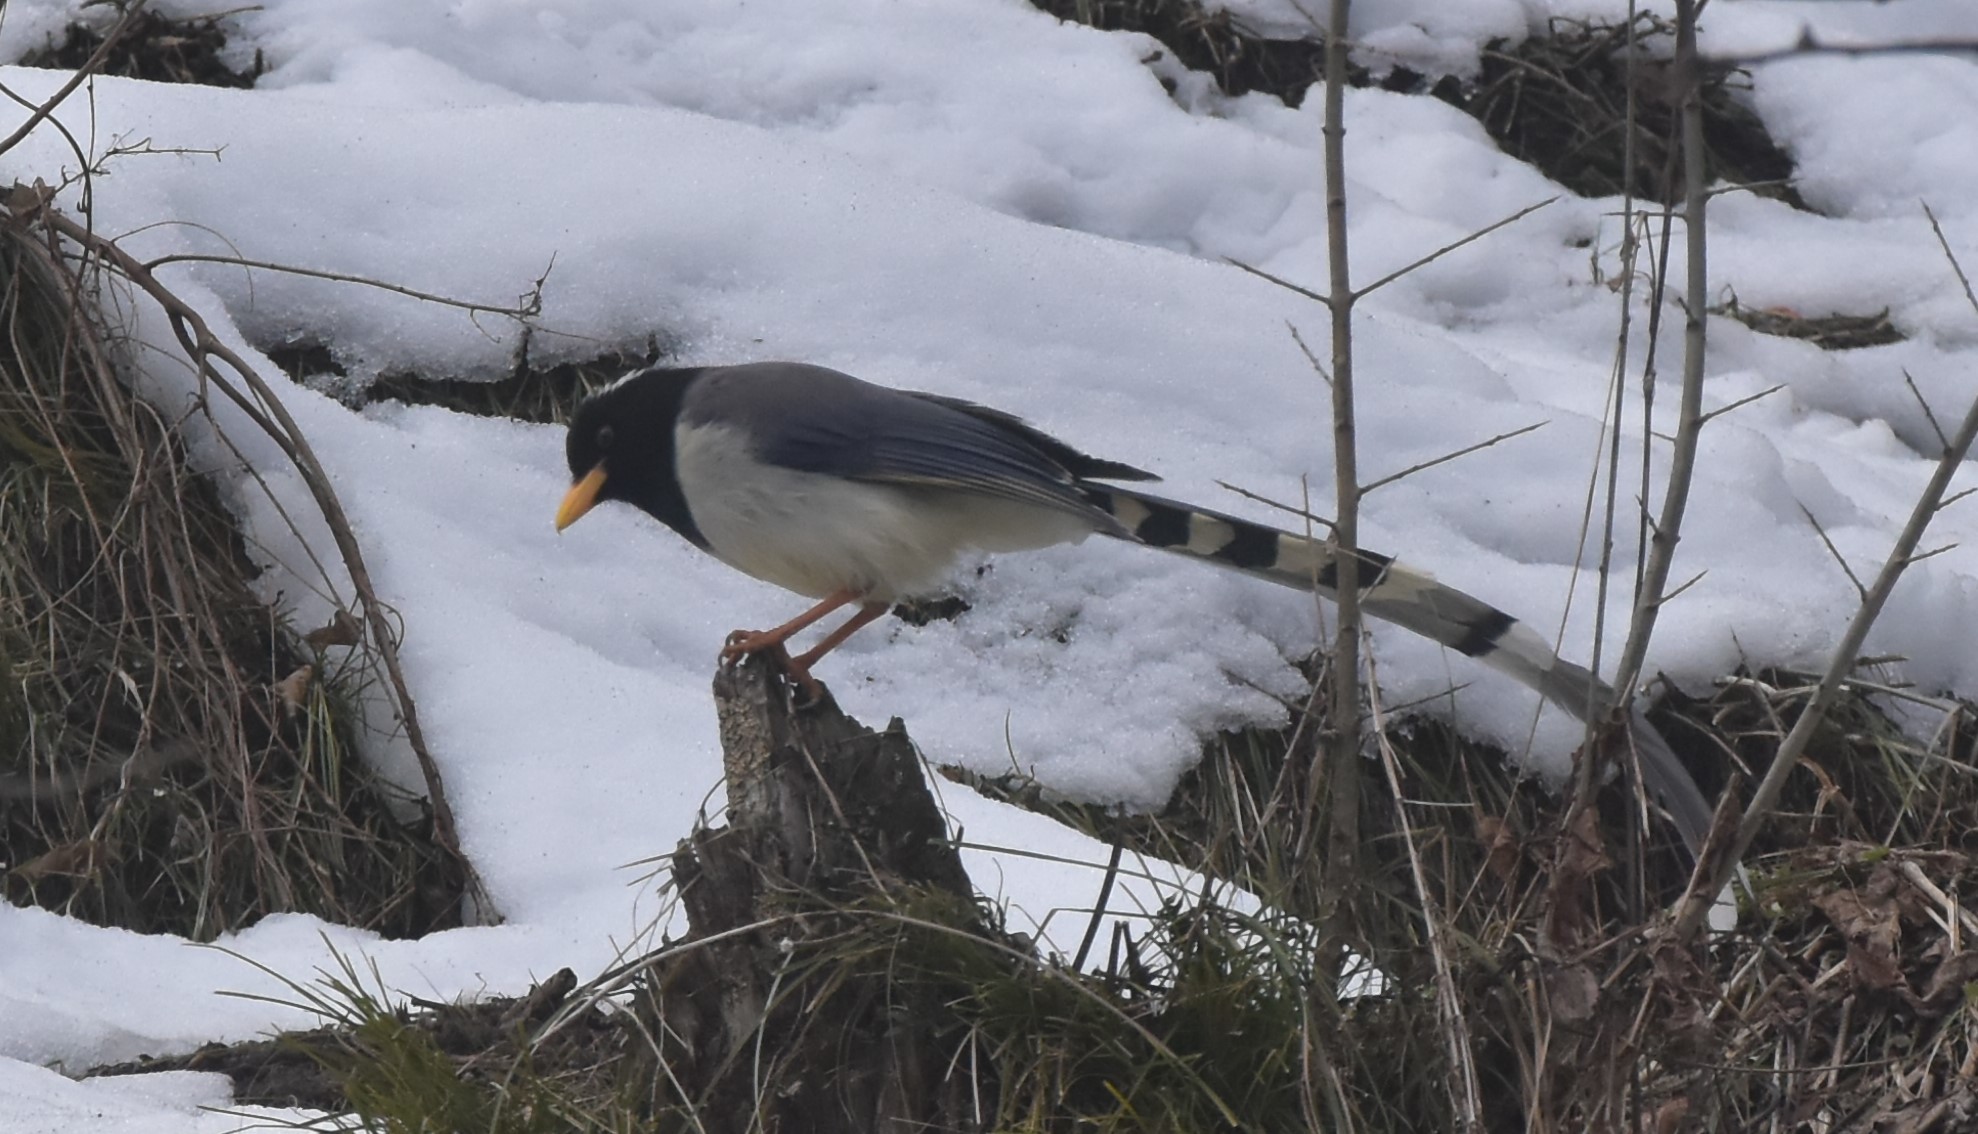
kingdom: Animalia
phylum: Chordata
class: Aves
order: Passeriformes
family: Corvidae
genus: Urocissa
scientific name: Urocissa flavirostris
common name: Yellow-billed blue magpie
